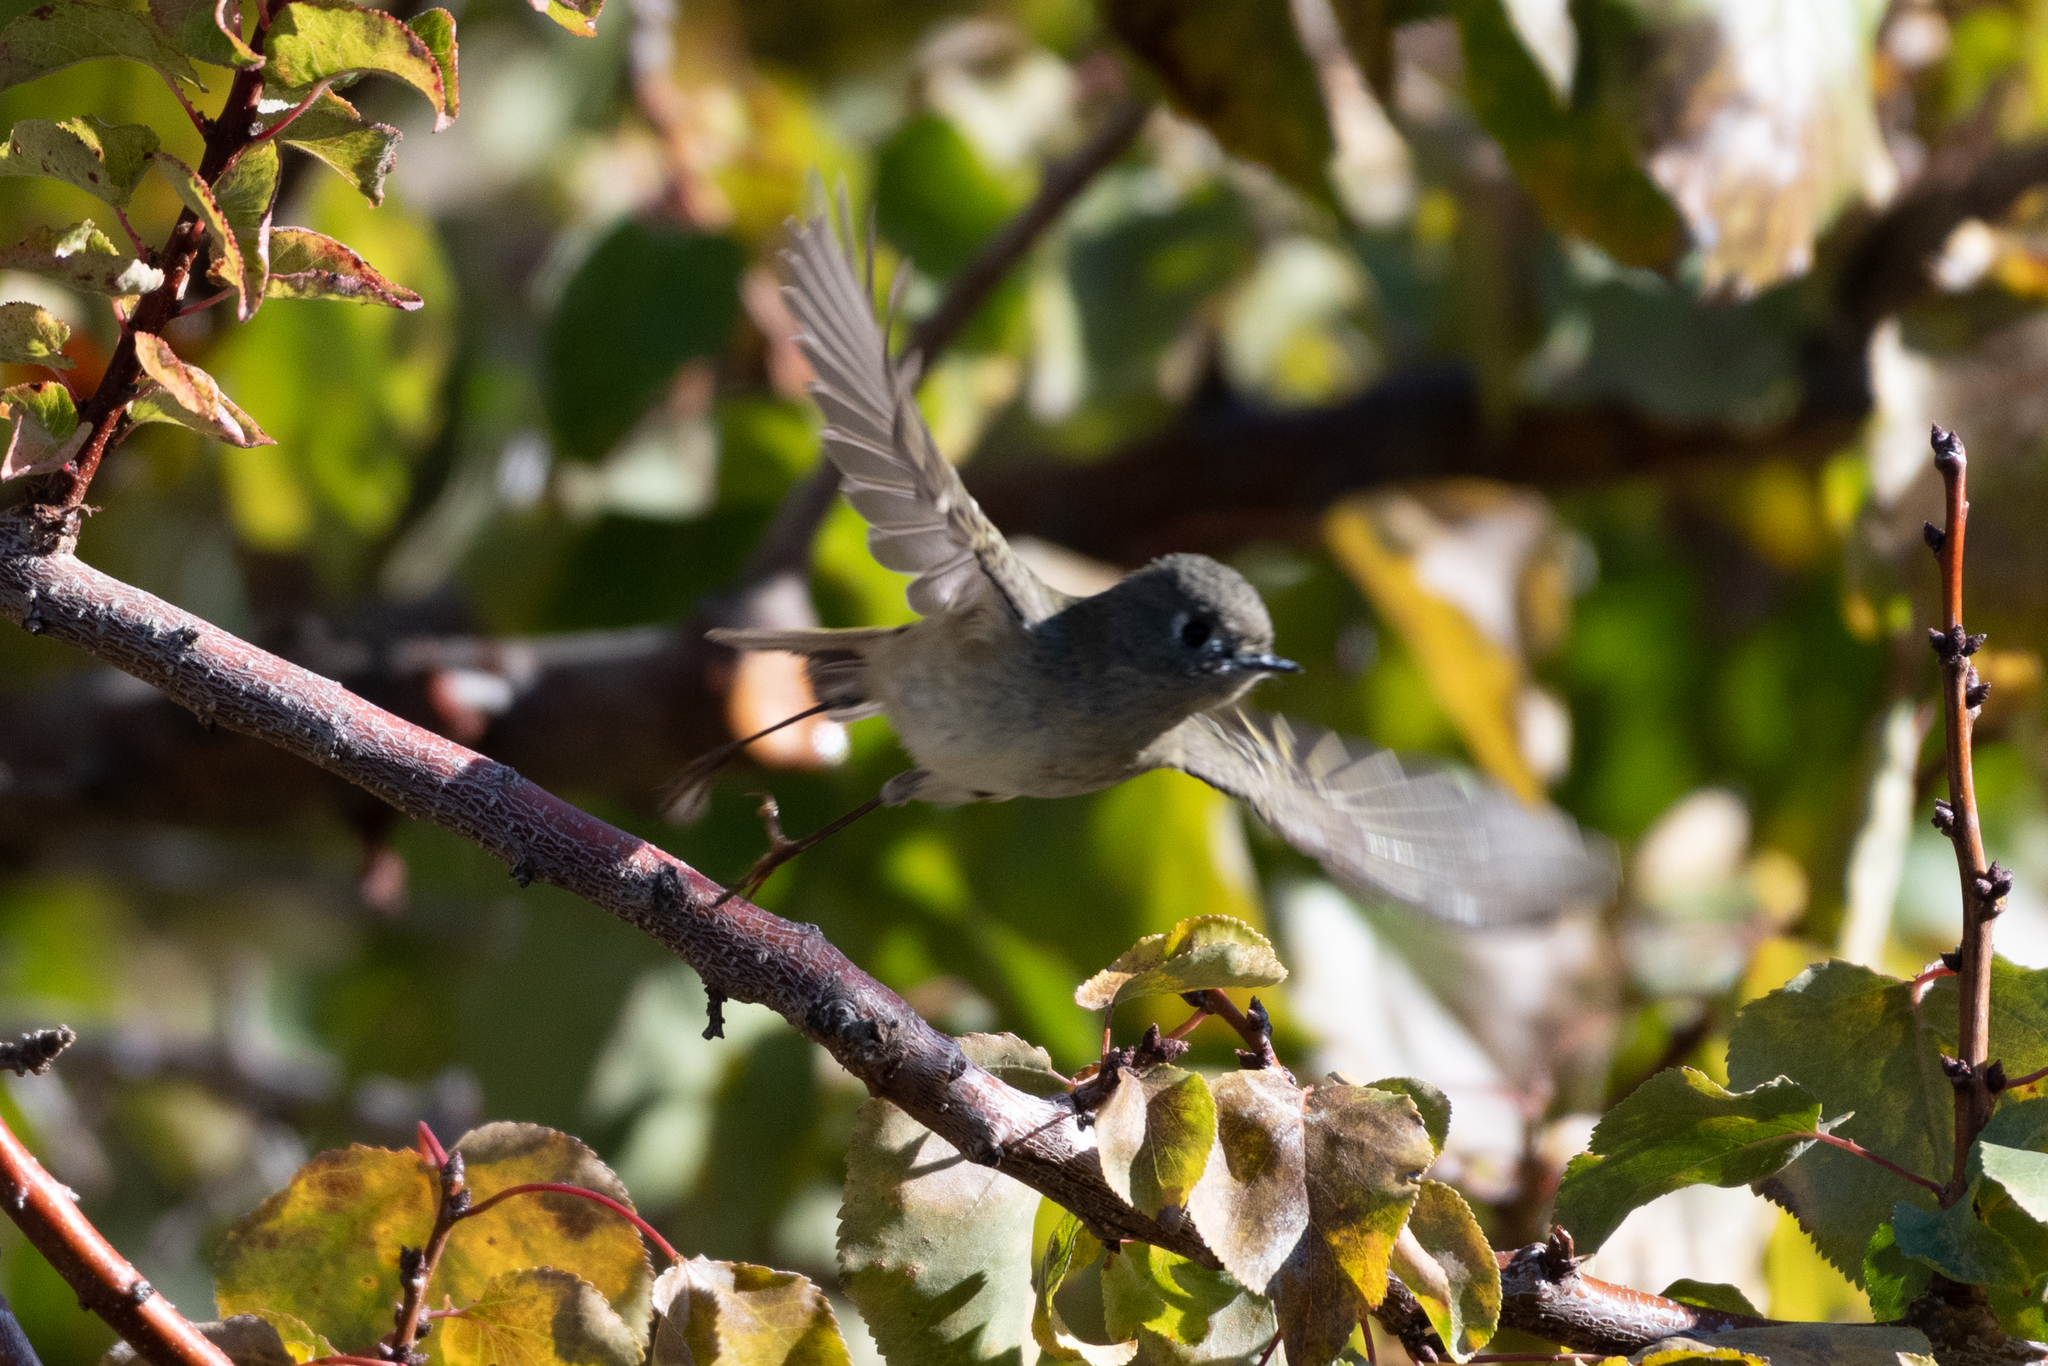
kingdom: Animalia
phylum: Chordata
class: Aves
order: Passeriformes
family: Regulidae
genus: Regulus
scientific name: Regulus calendula
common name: Ruby-crowned kinglet
